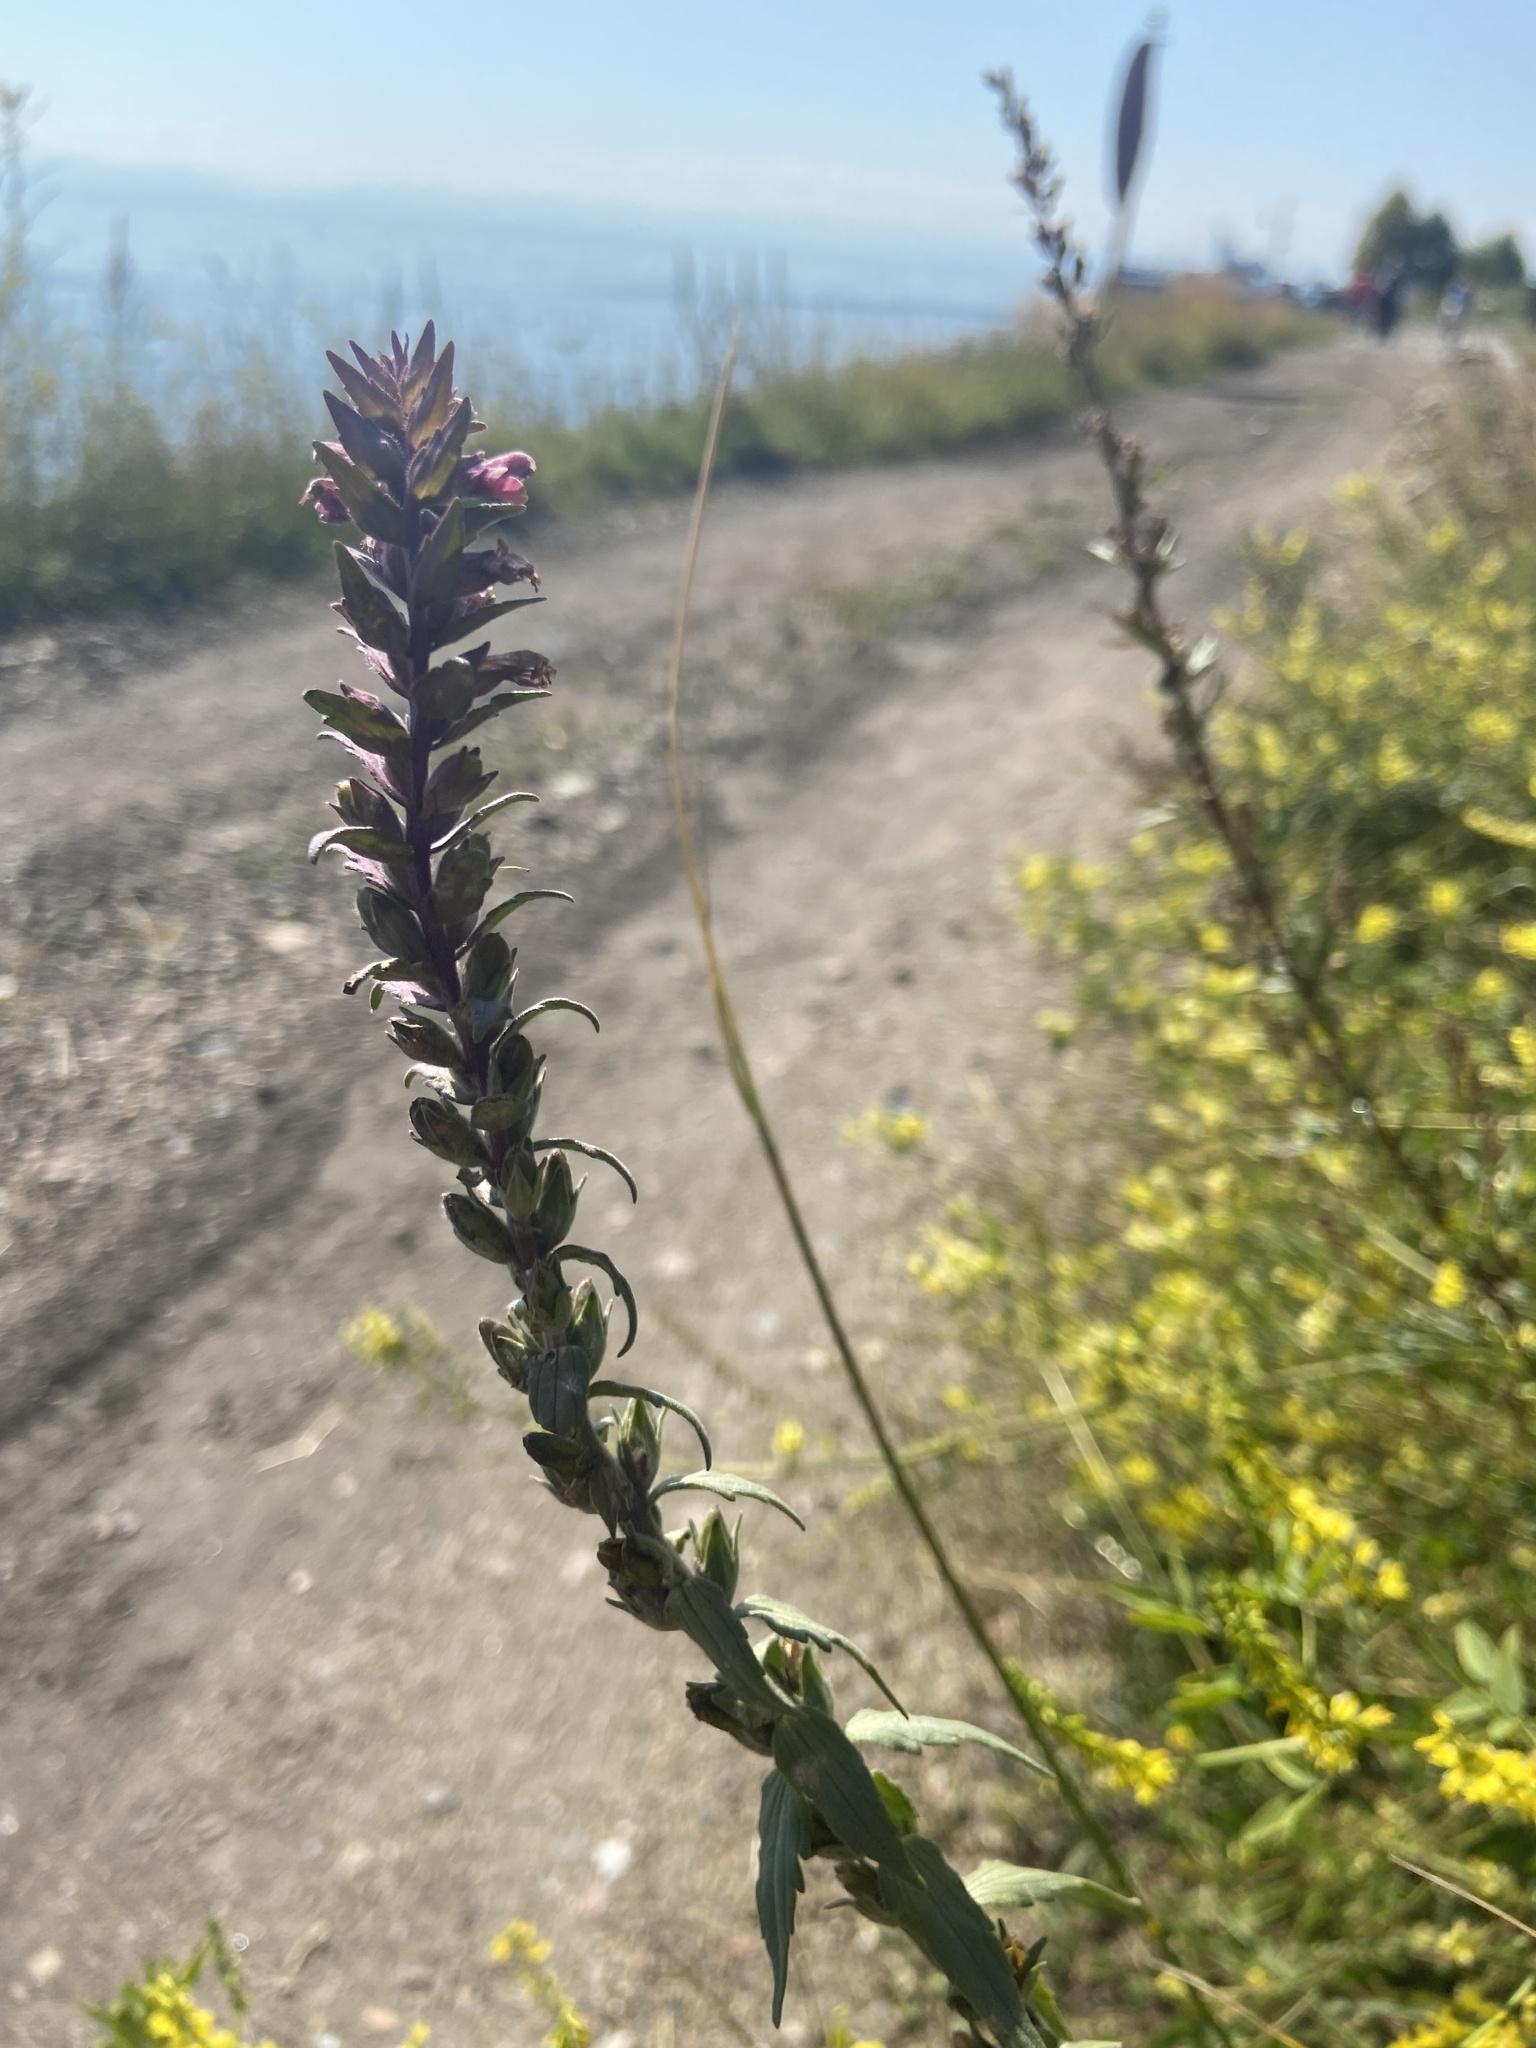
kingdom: Plantae
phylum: Tracheophyta
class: Magnoliopsida
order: Lamiales
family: Orobanchaceae
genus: Odontites
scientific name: Odontites vulgaris
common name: Broomrape
